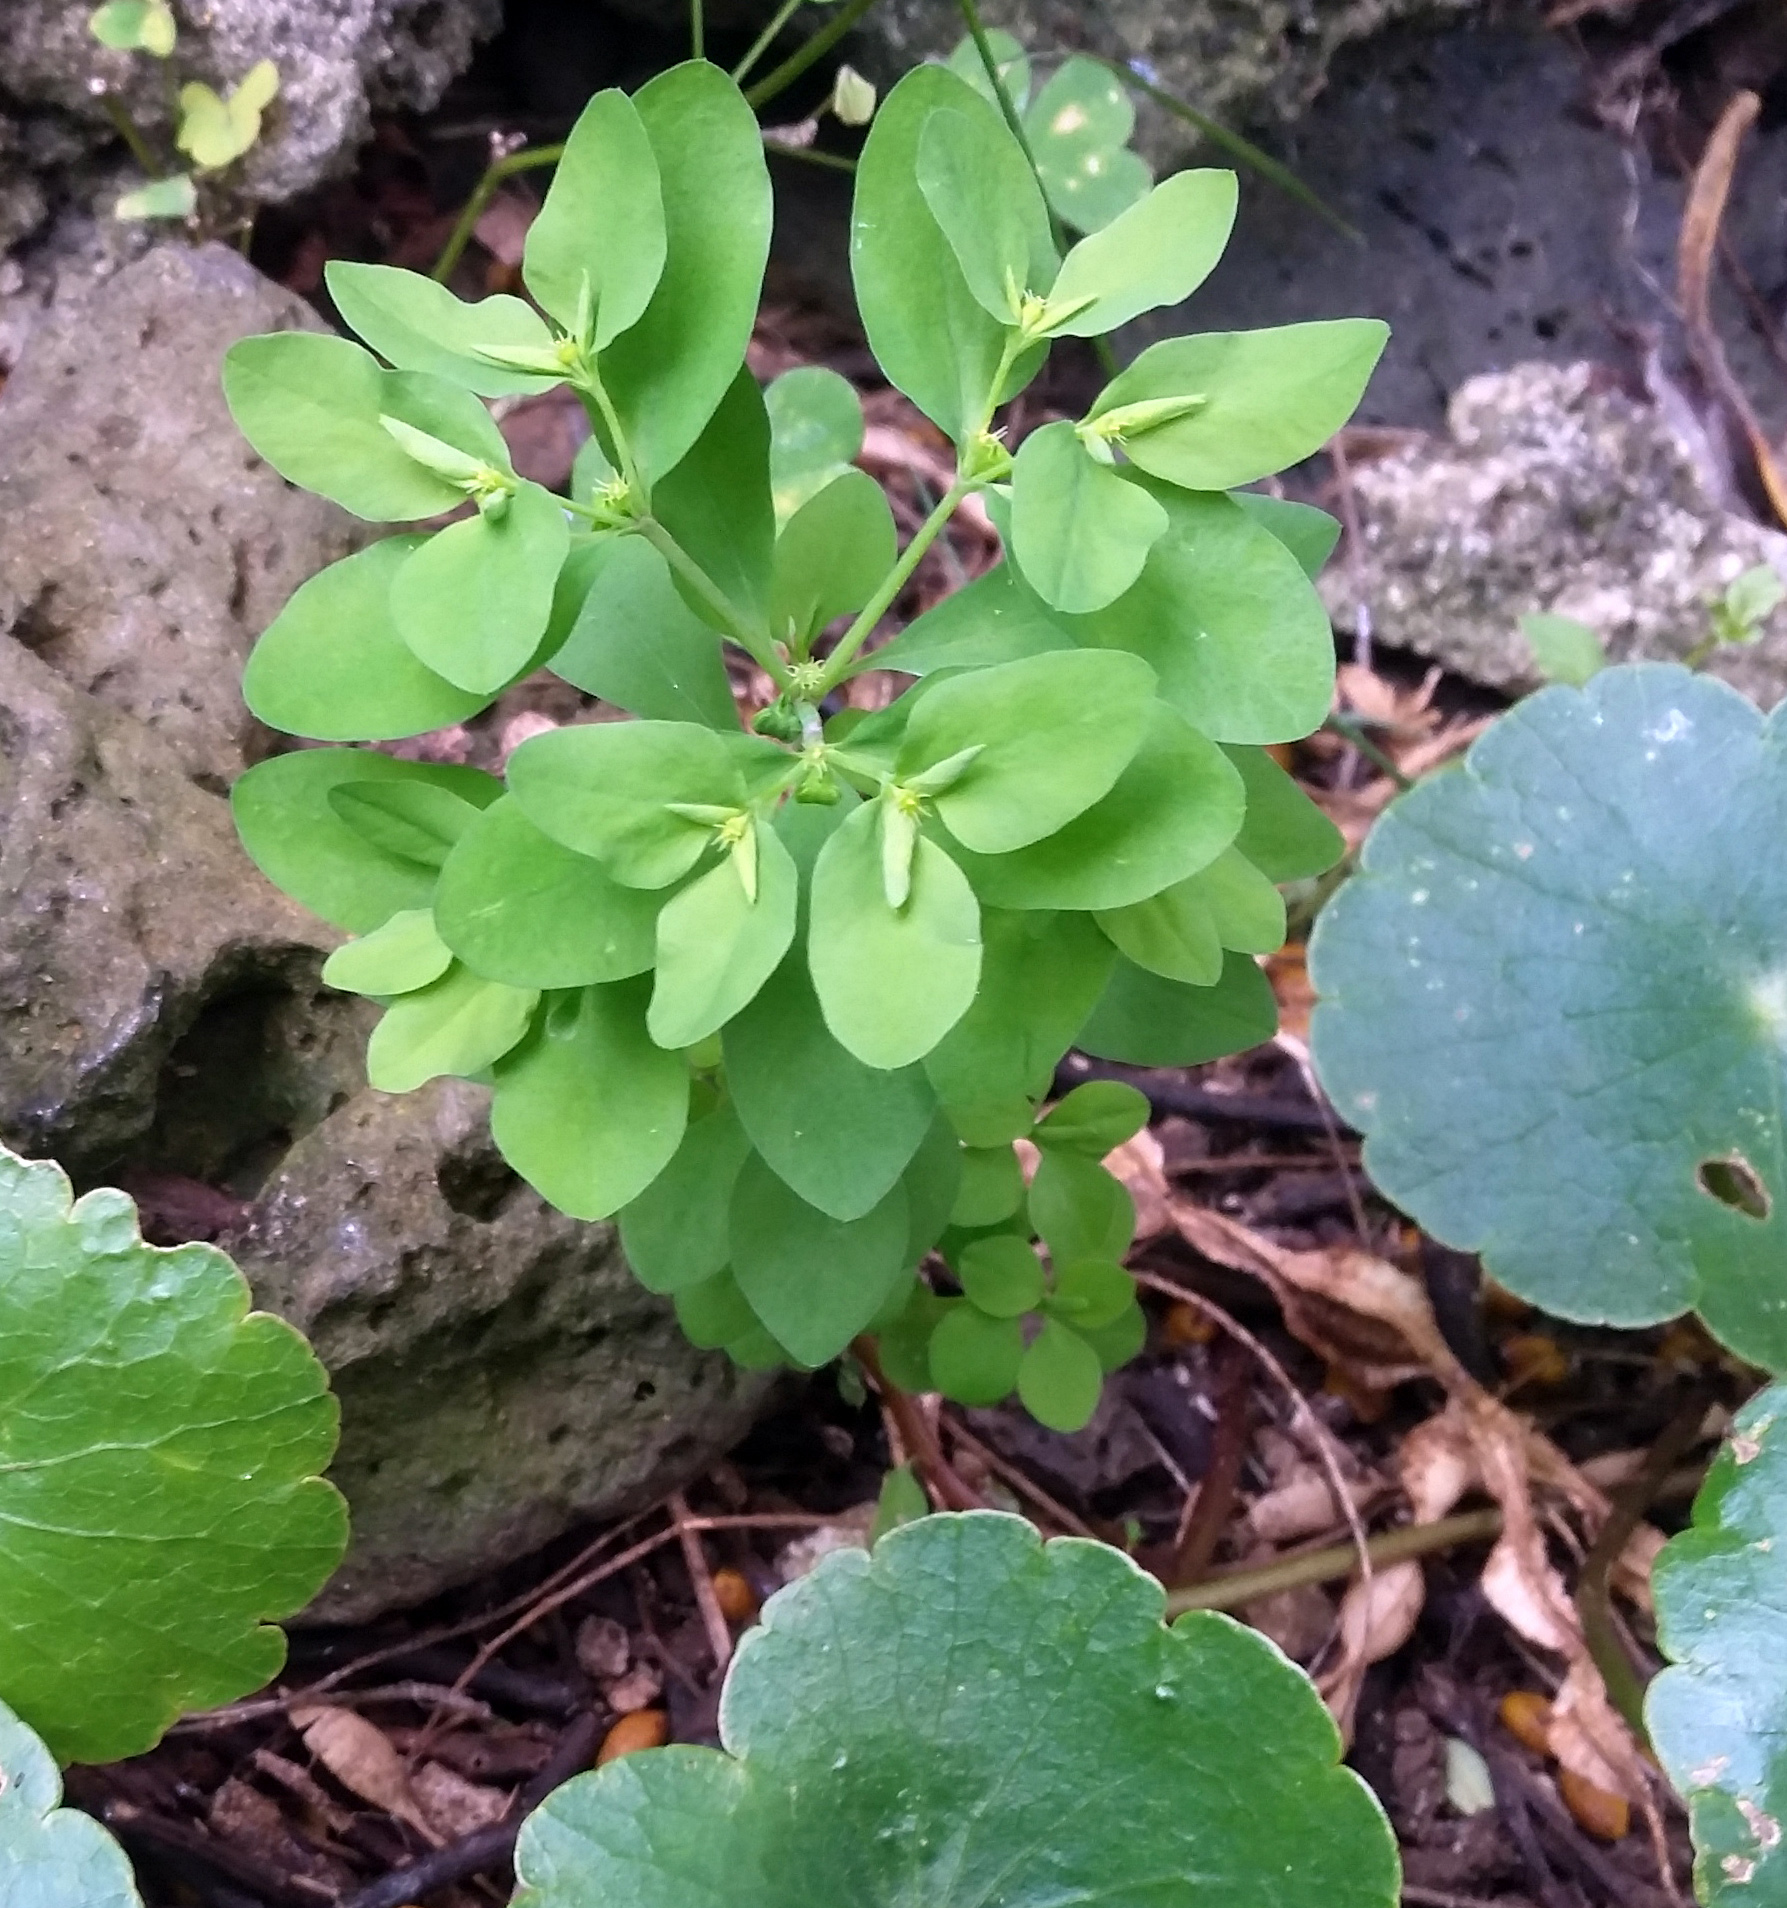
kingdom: Plantae
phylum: Tracheophyta
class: Magnoliopsida
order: Malpighiales
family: Euphorbiaceae
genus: Euphorbia
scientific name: Euphorbia peplus
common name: Petty spurge
